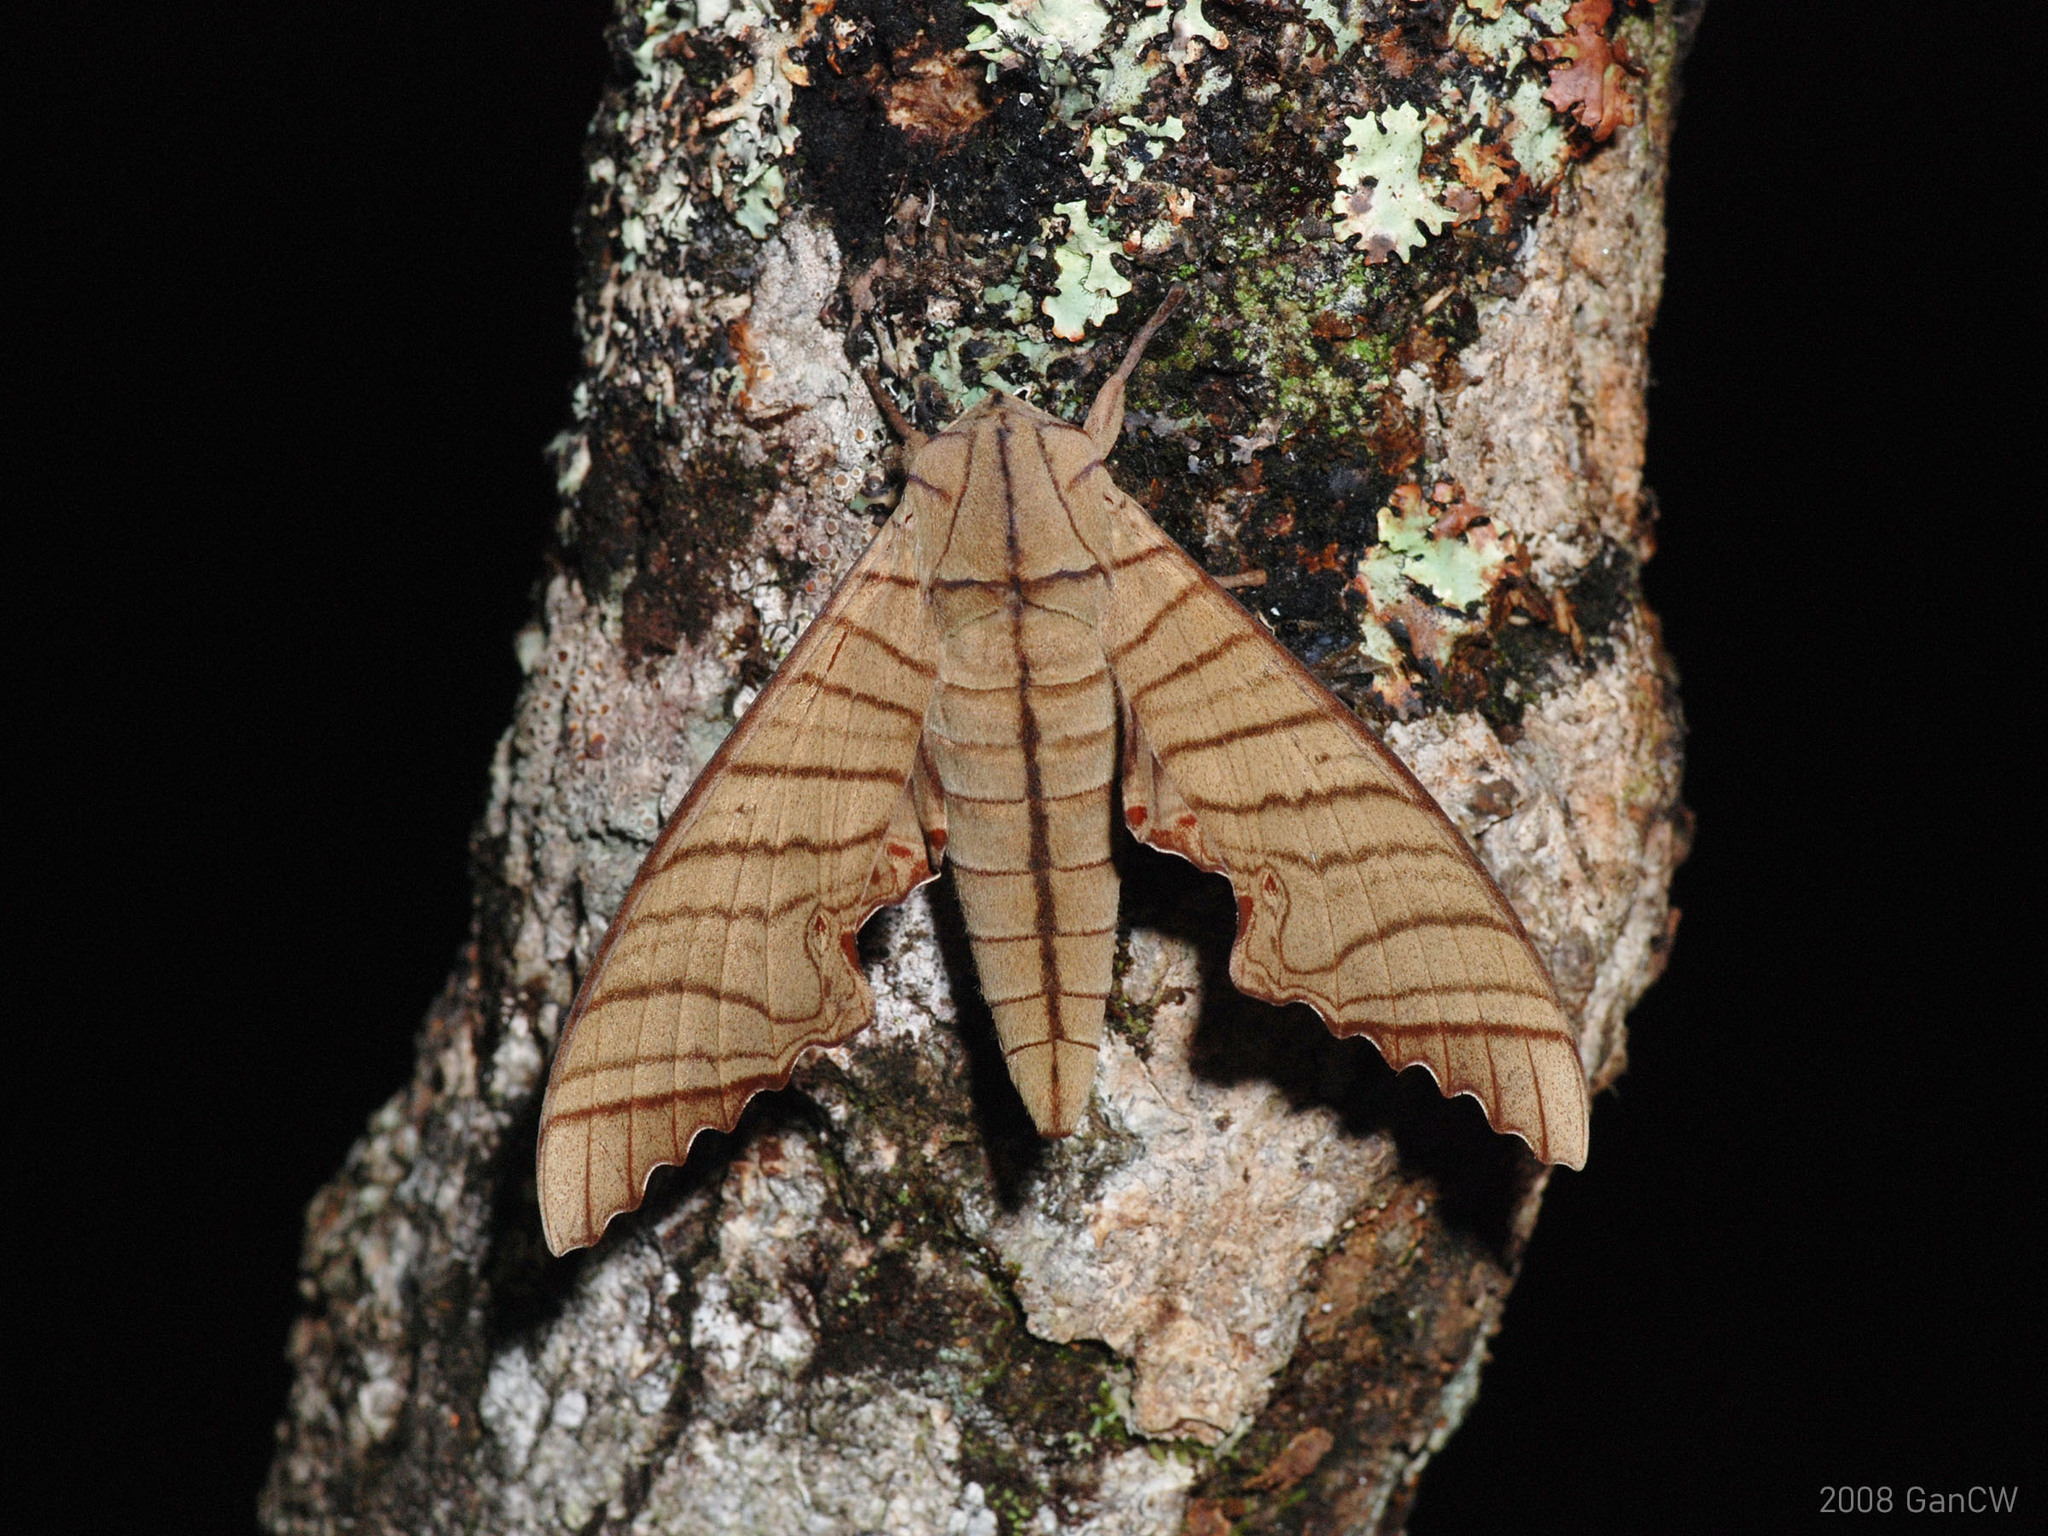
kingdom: Animalia
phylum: Arthropoda
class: Insecta
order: Lepidoptera
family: Sphingidae
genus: Marumba
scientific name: Marumba tigrina
